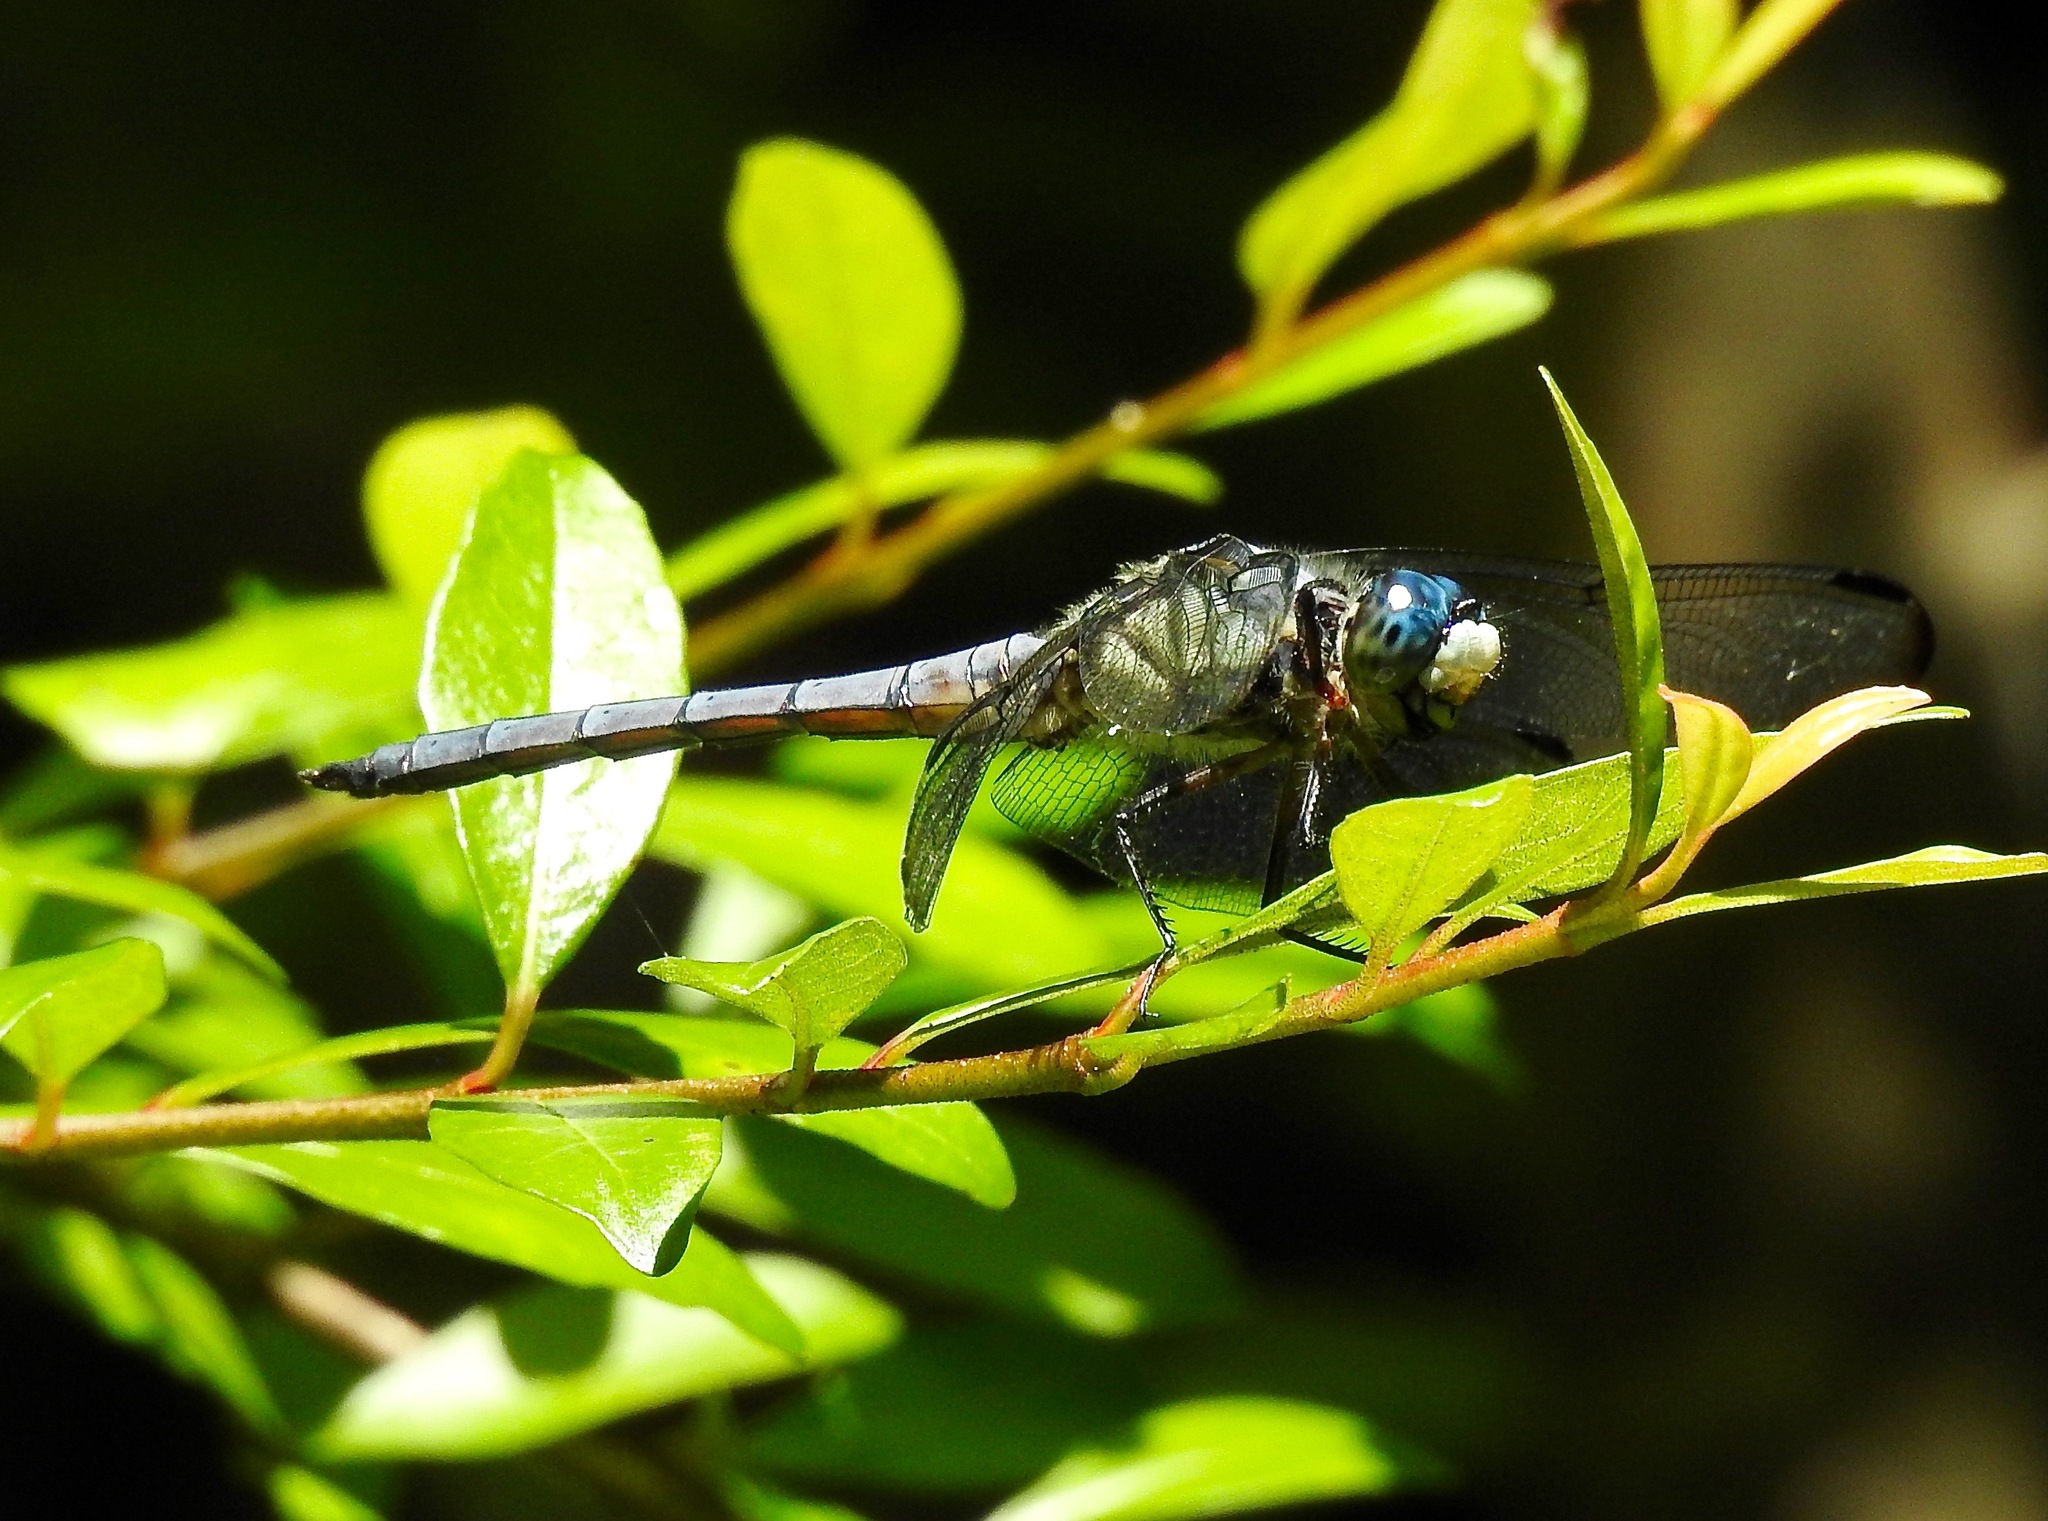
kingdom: Animalia
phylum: Arthropoda
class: Insecta
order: Odonata
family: Libellulidae
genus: Libellula
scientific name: Libellula vibrans
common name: Great blue skimmer
